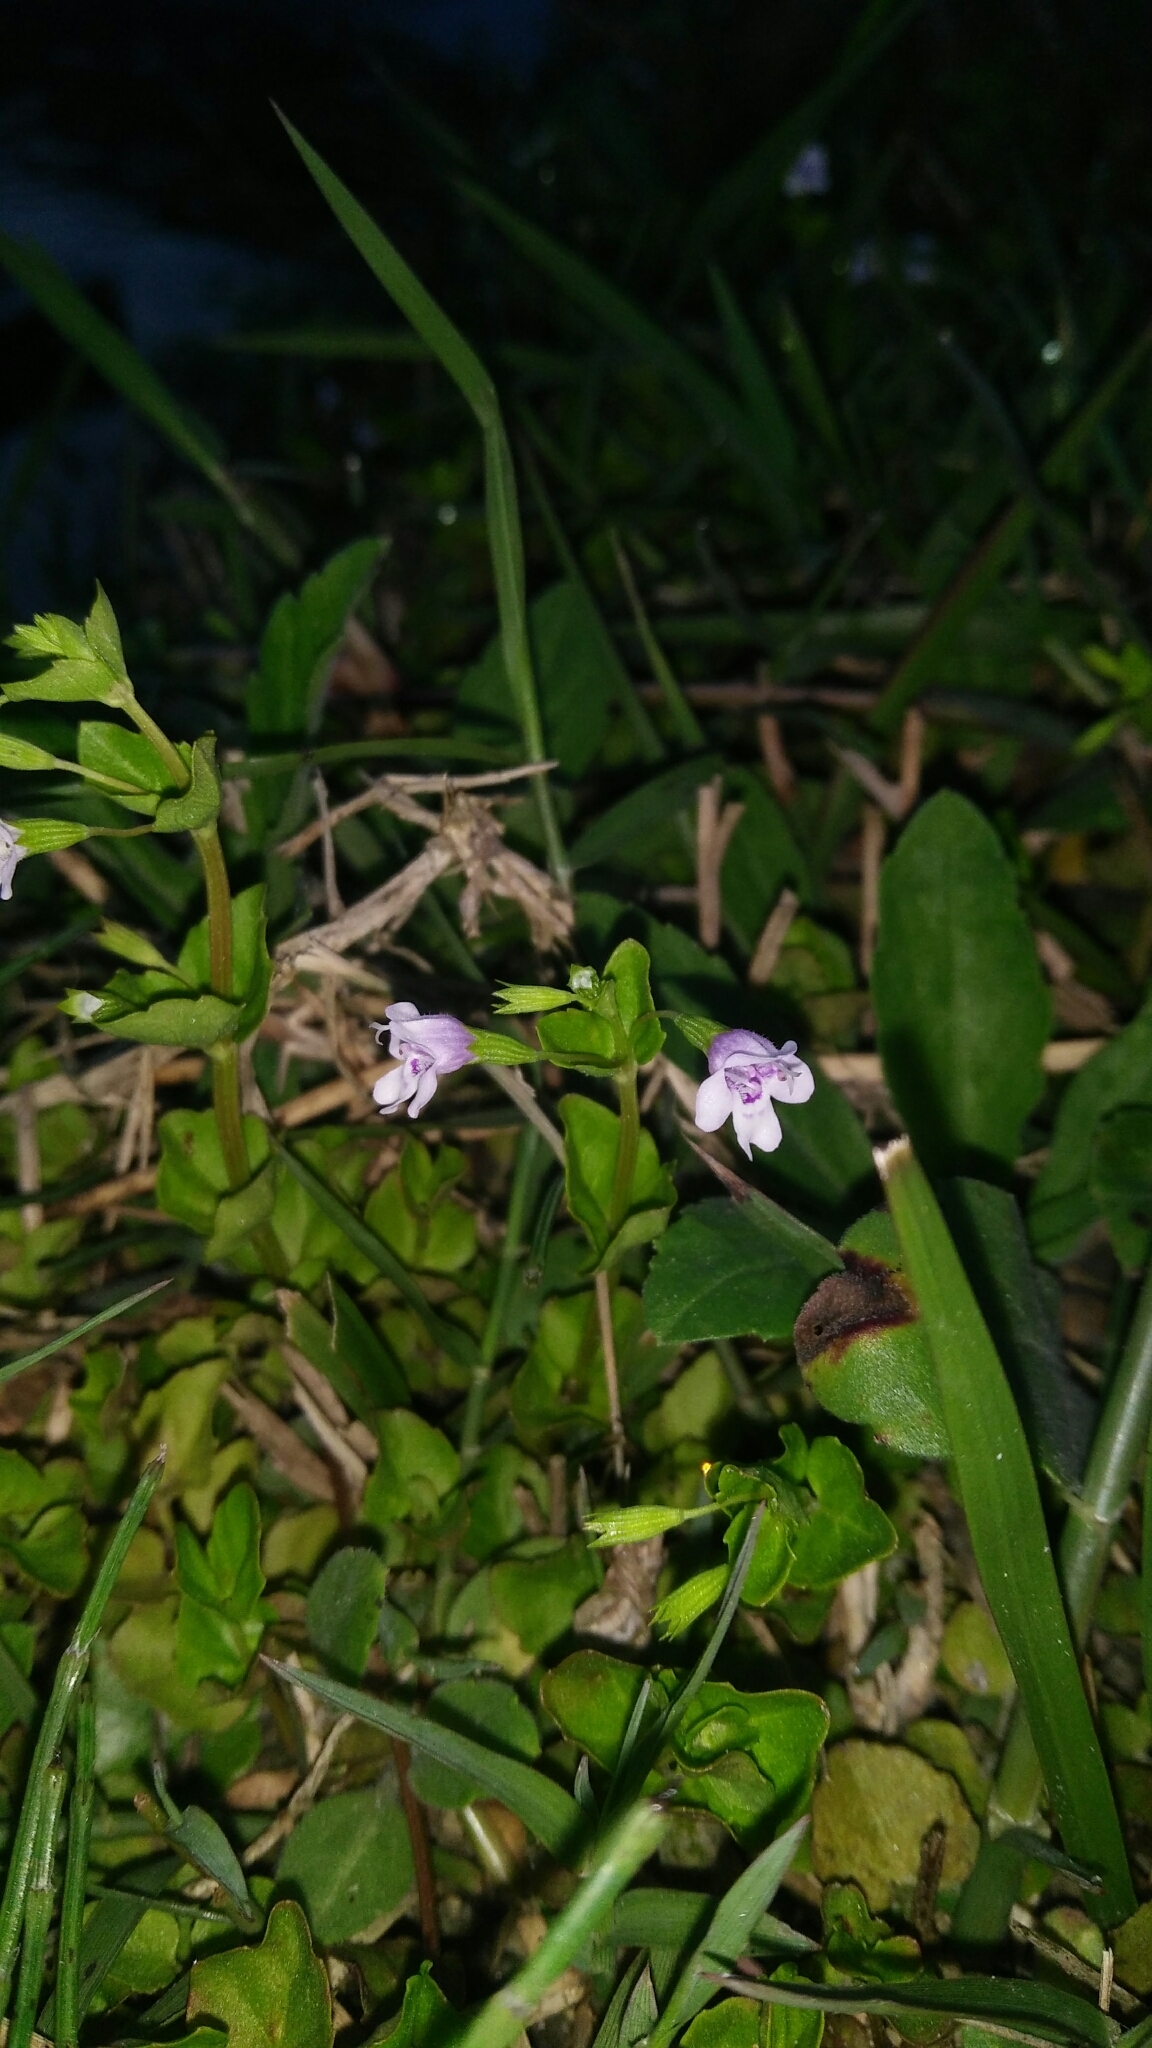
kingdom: Plantae
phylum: Tracheophyta
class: Magnoliopsida
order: Lamiales
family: Lamiaceae
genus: Clinopodium
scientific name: Clinopodium brownei
